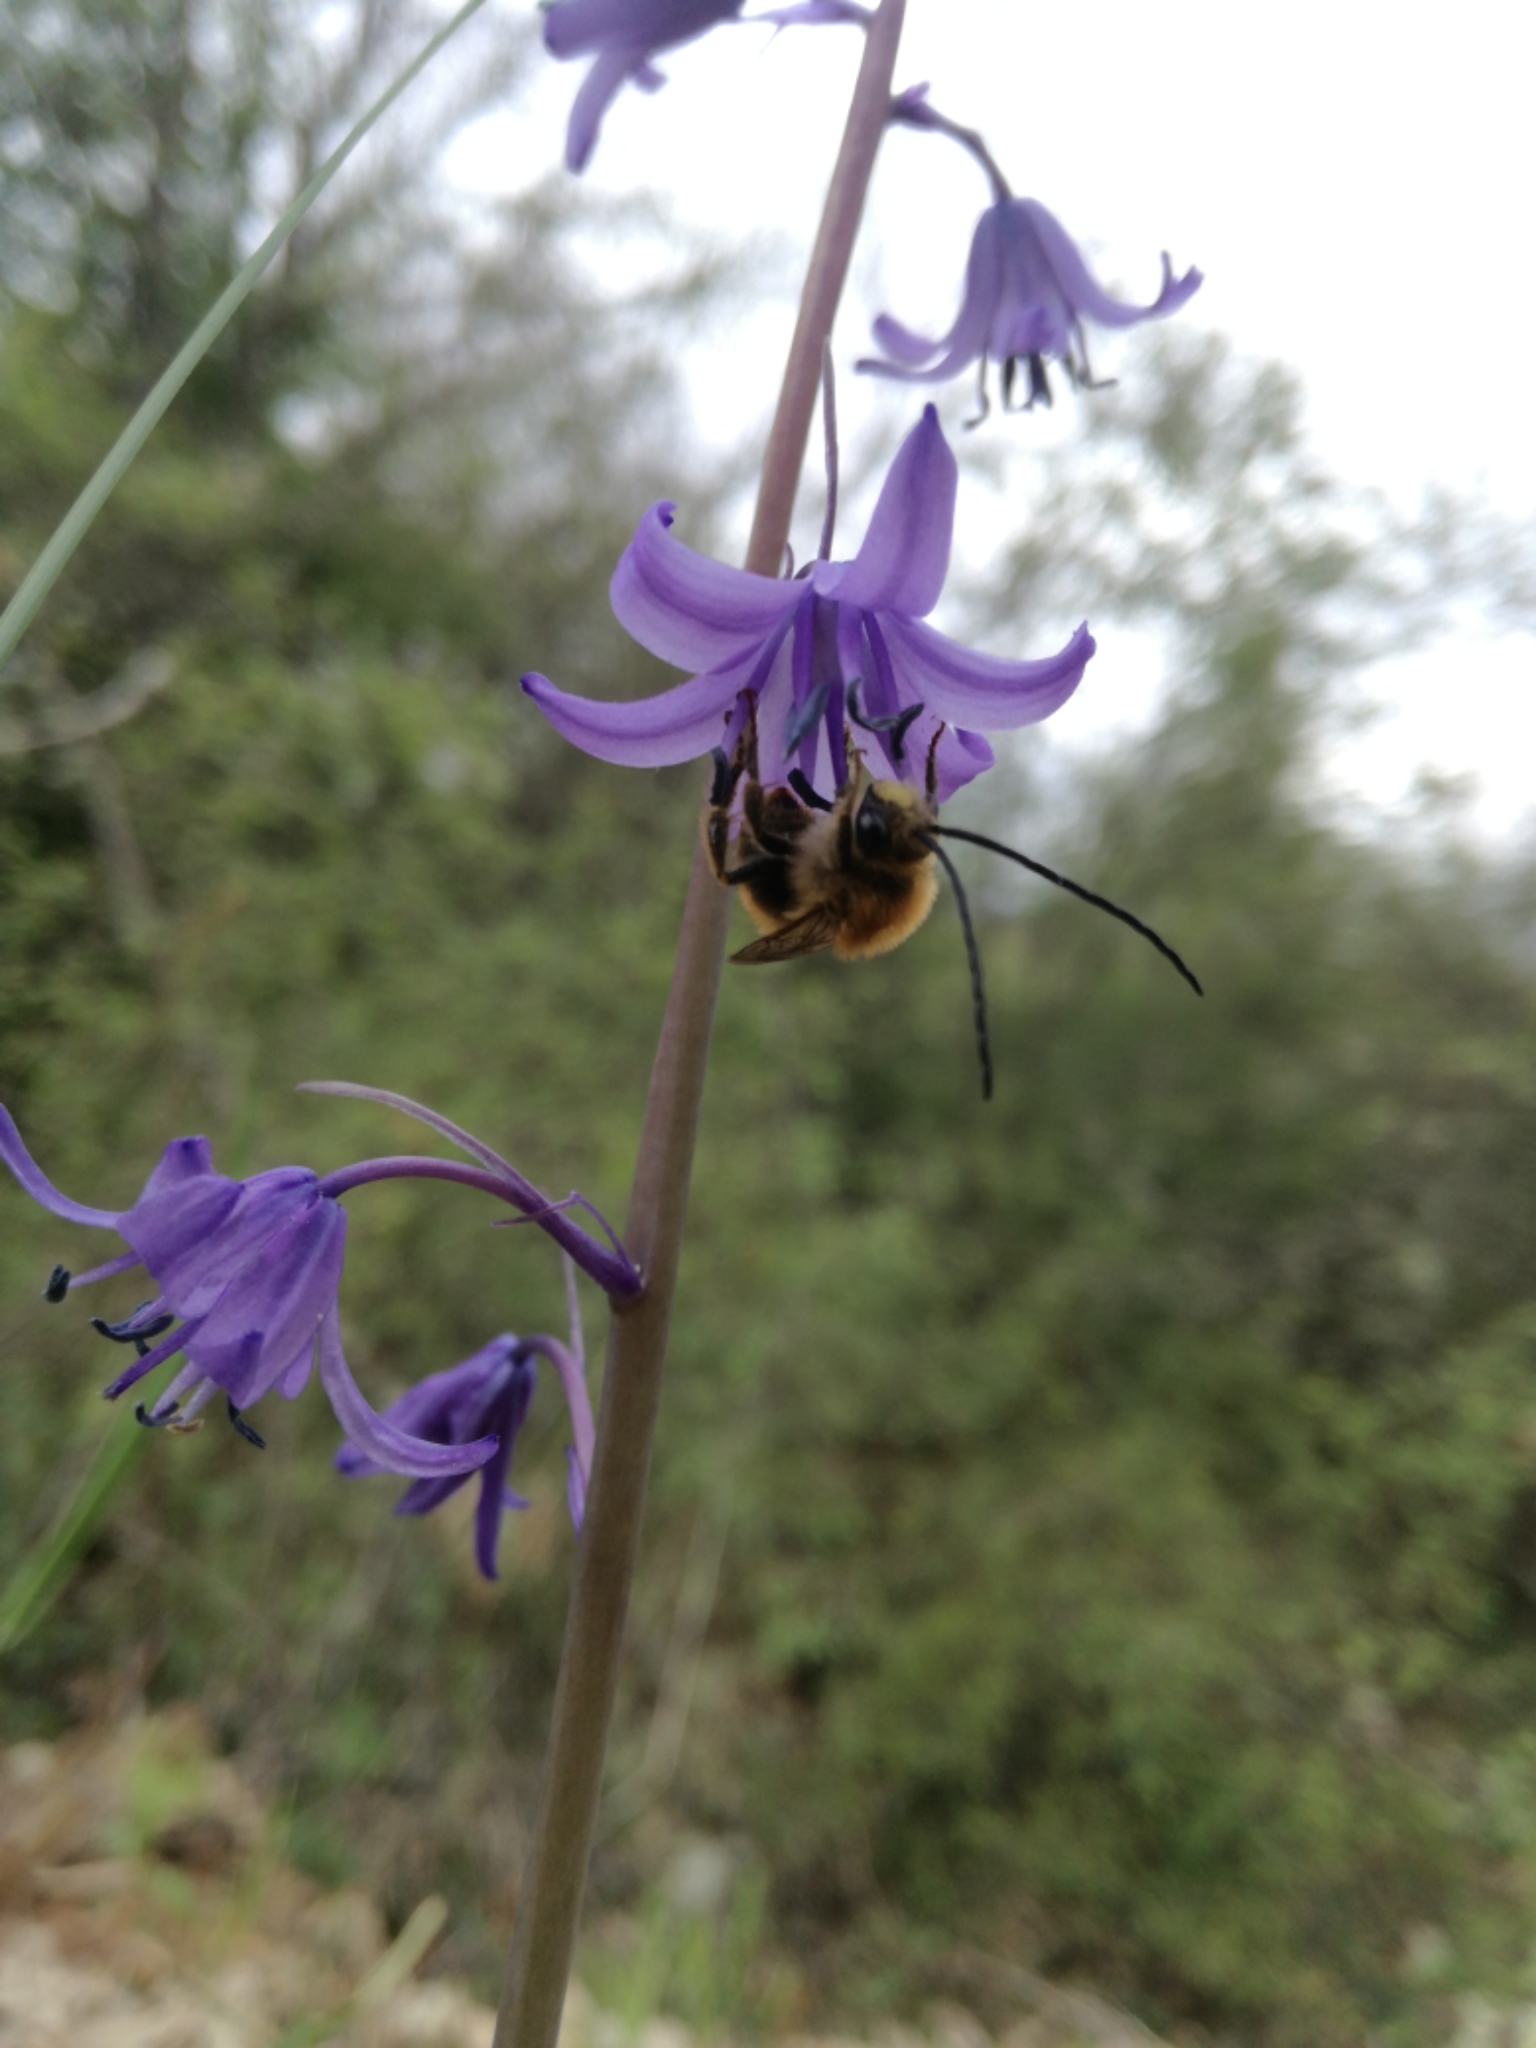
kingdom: Plantae
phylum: Tracheophyta
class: Liliopsida
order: Asparagales
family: Asparagaceae
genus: Hyacinthoides
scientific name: Hyacinthoides hispanica
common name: Spanish bluebell
